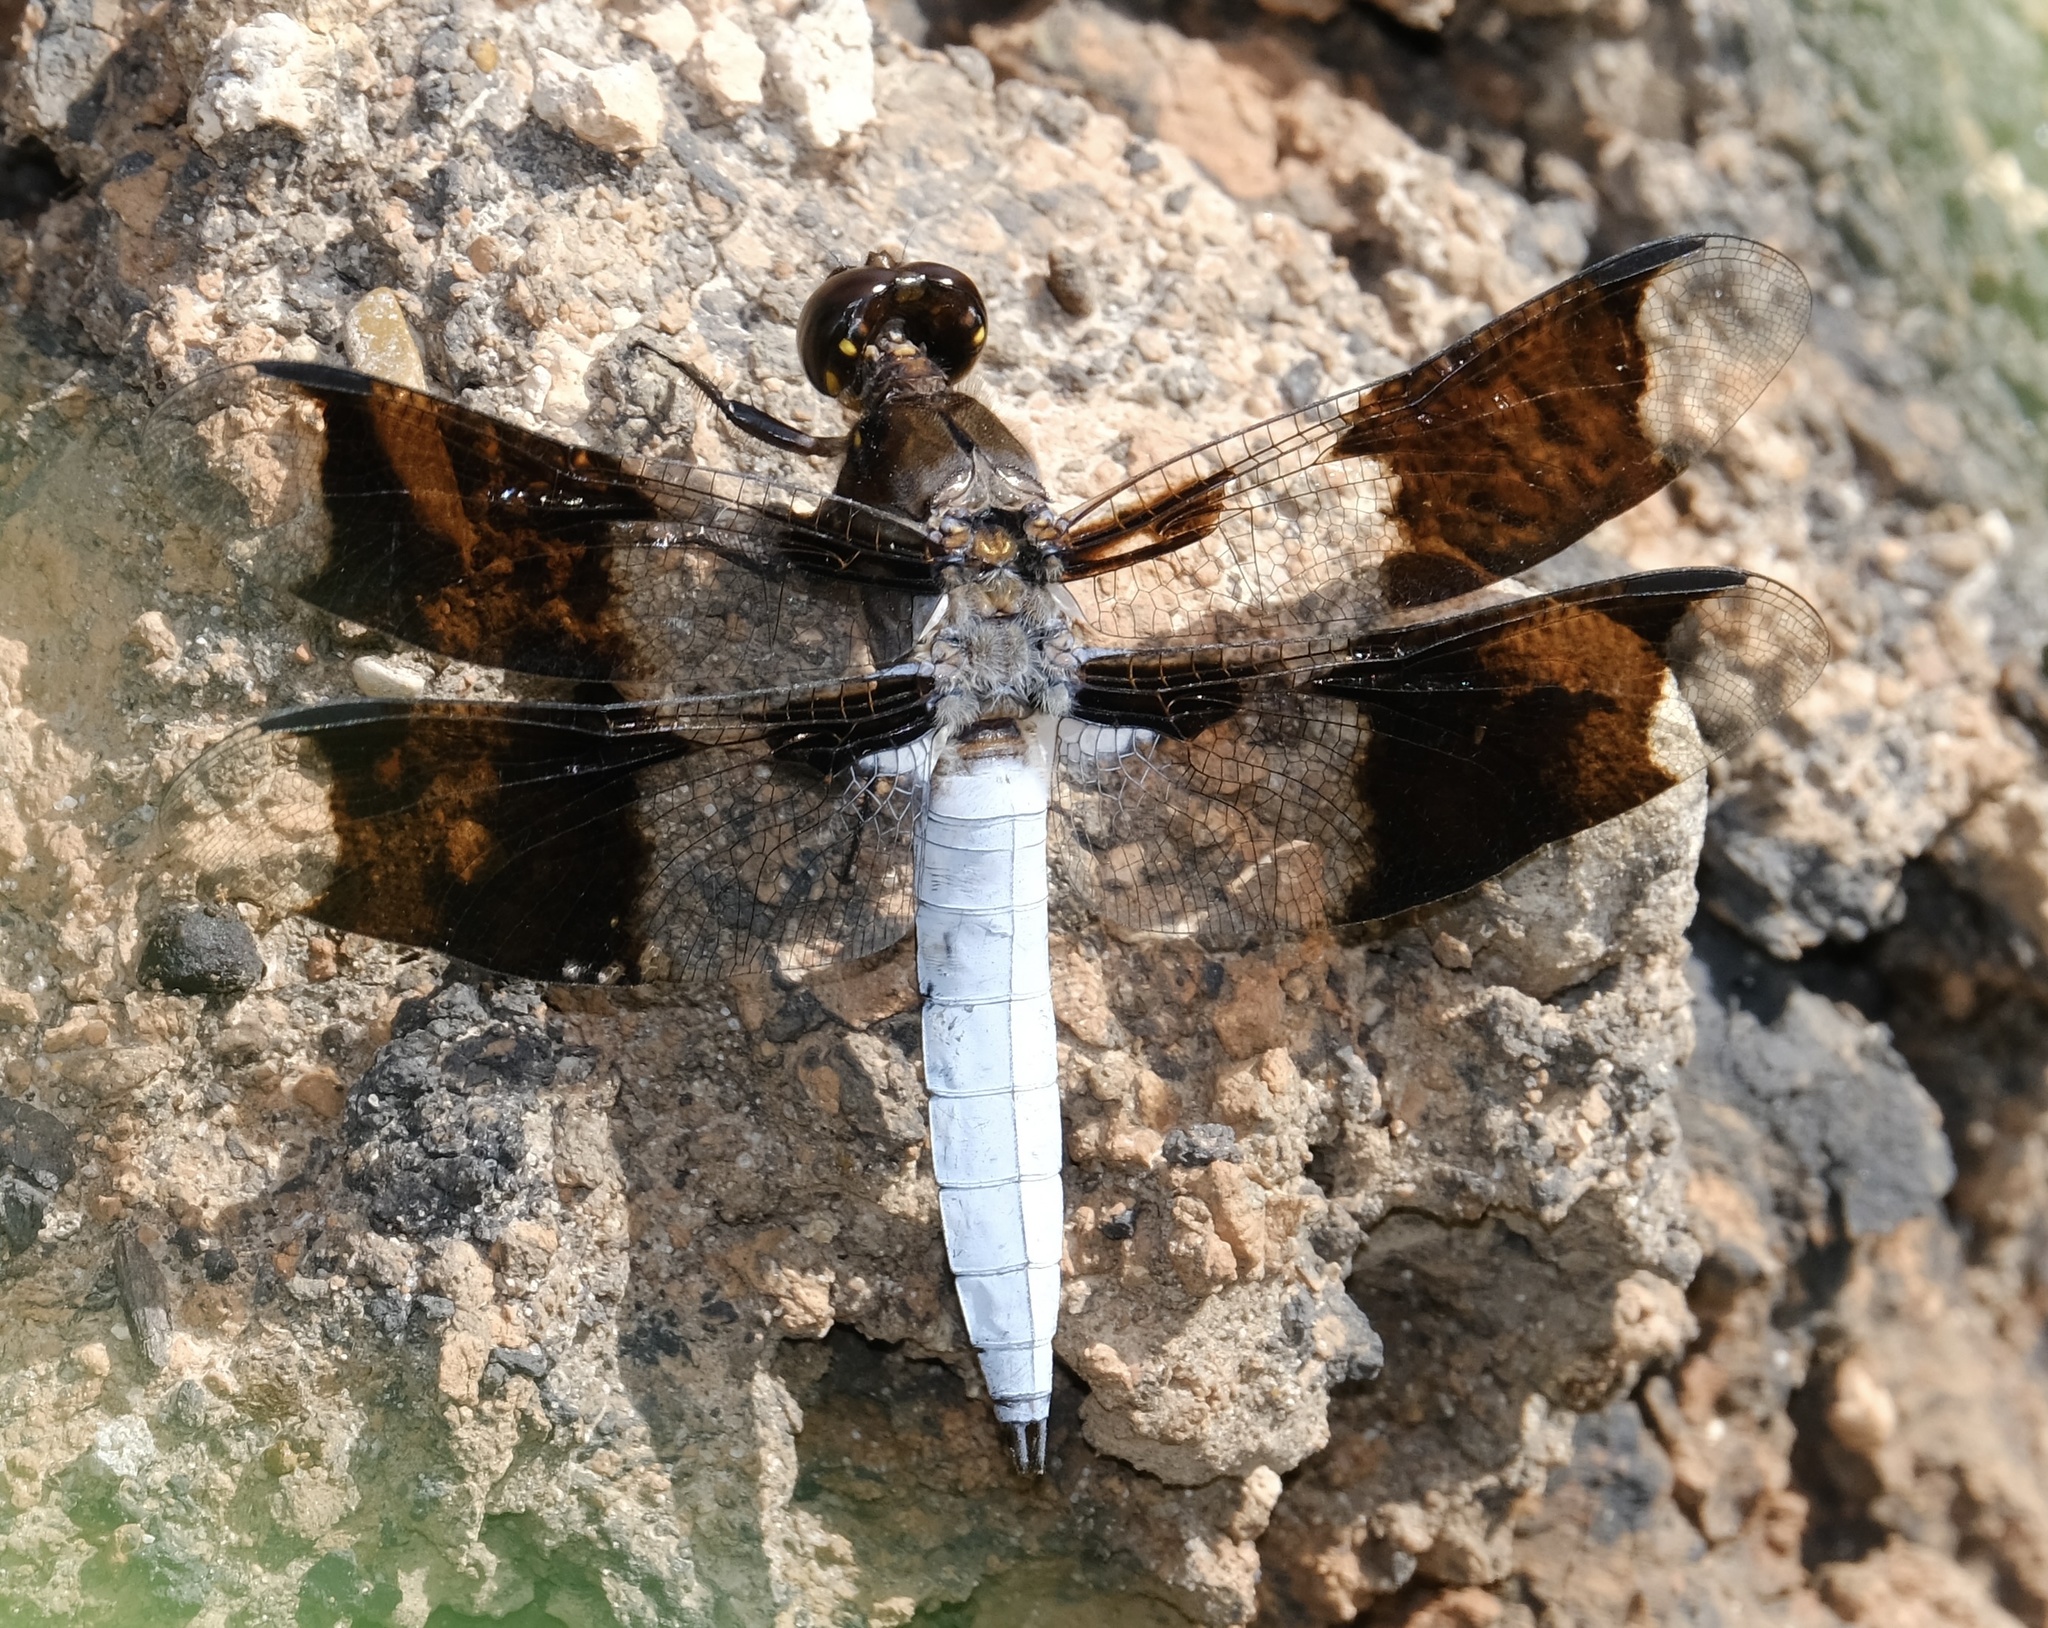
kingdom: Animalia
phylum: Arthropoda
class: Insecta
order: Odonata
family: Libellulidae
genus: Plathemis
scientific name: Plathemis lydia
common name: Common whitetail
